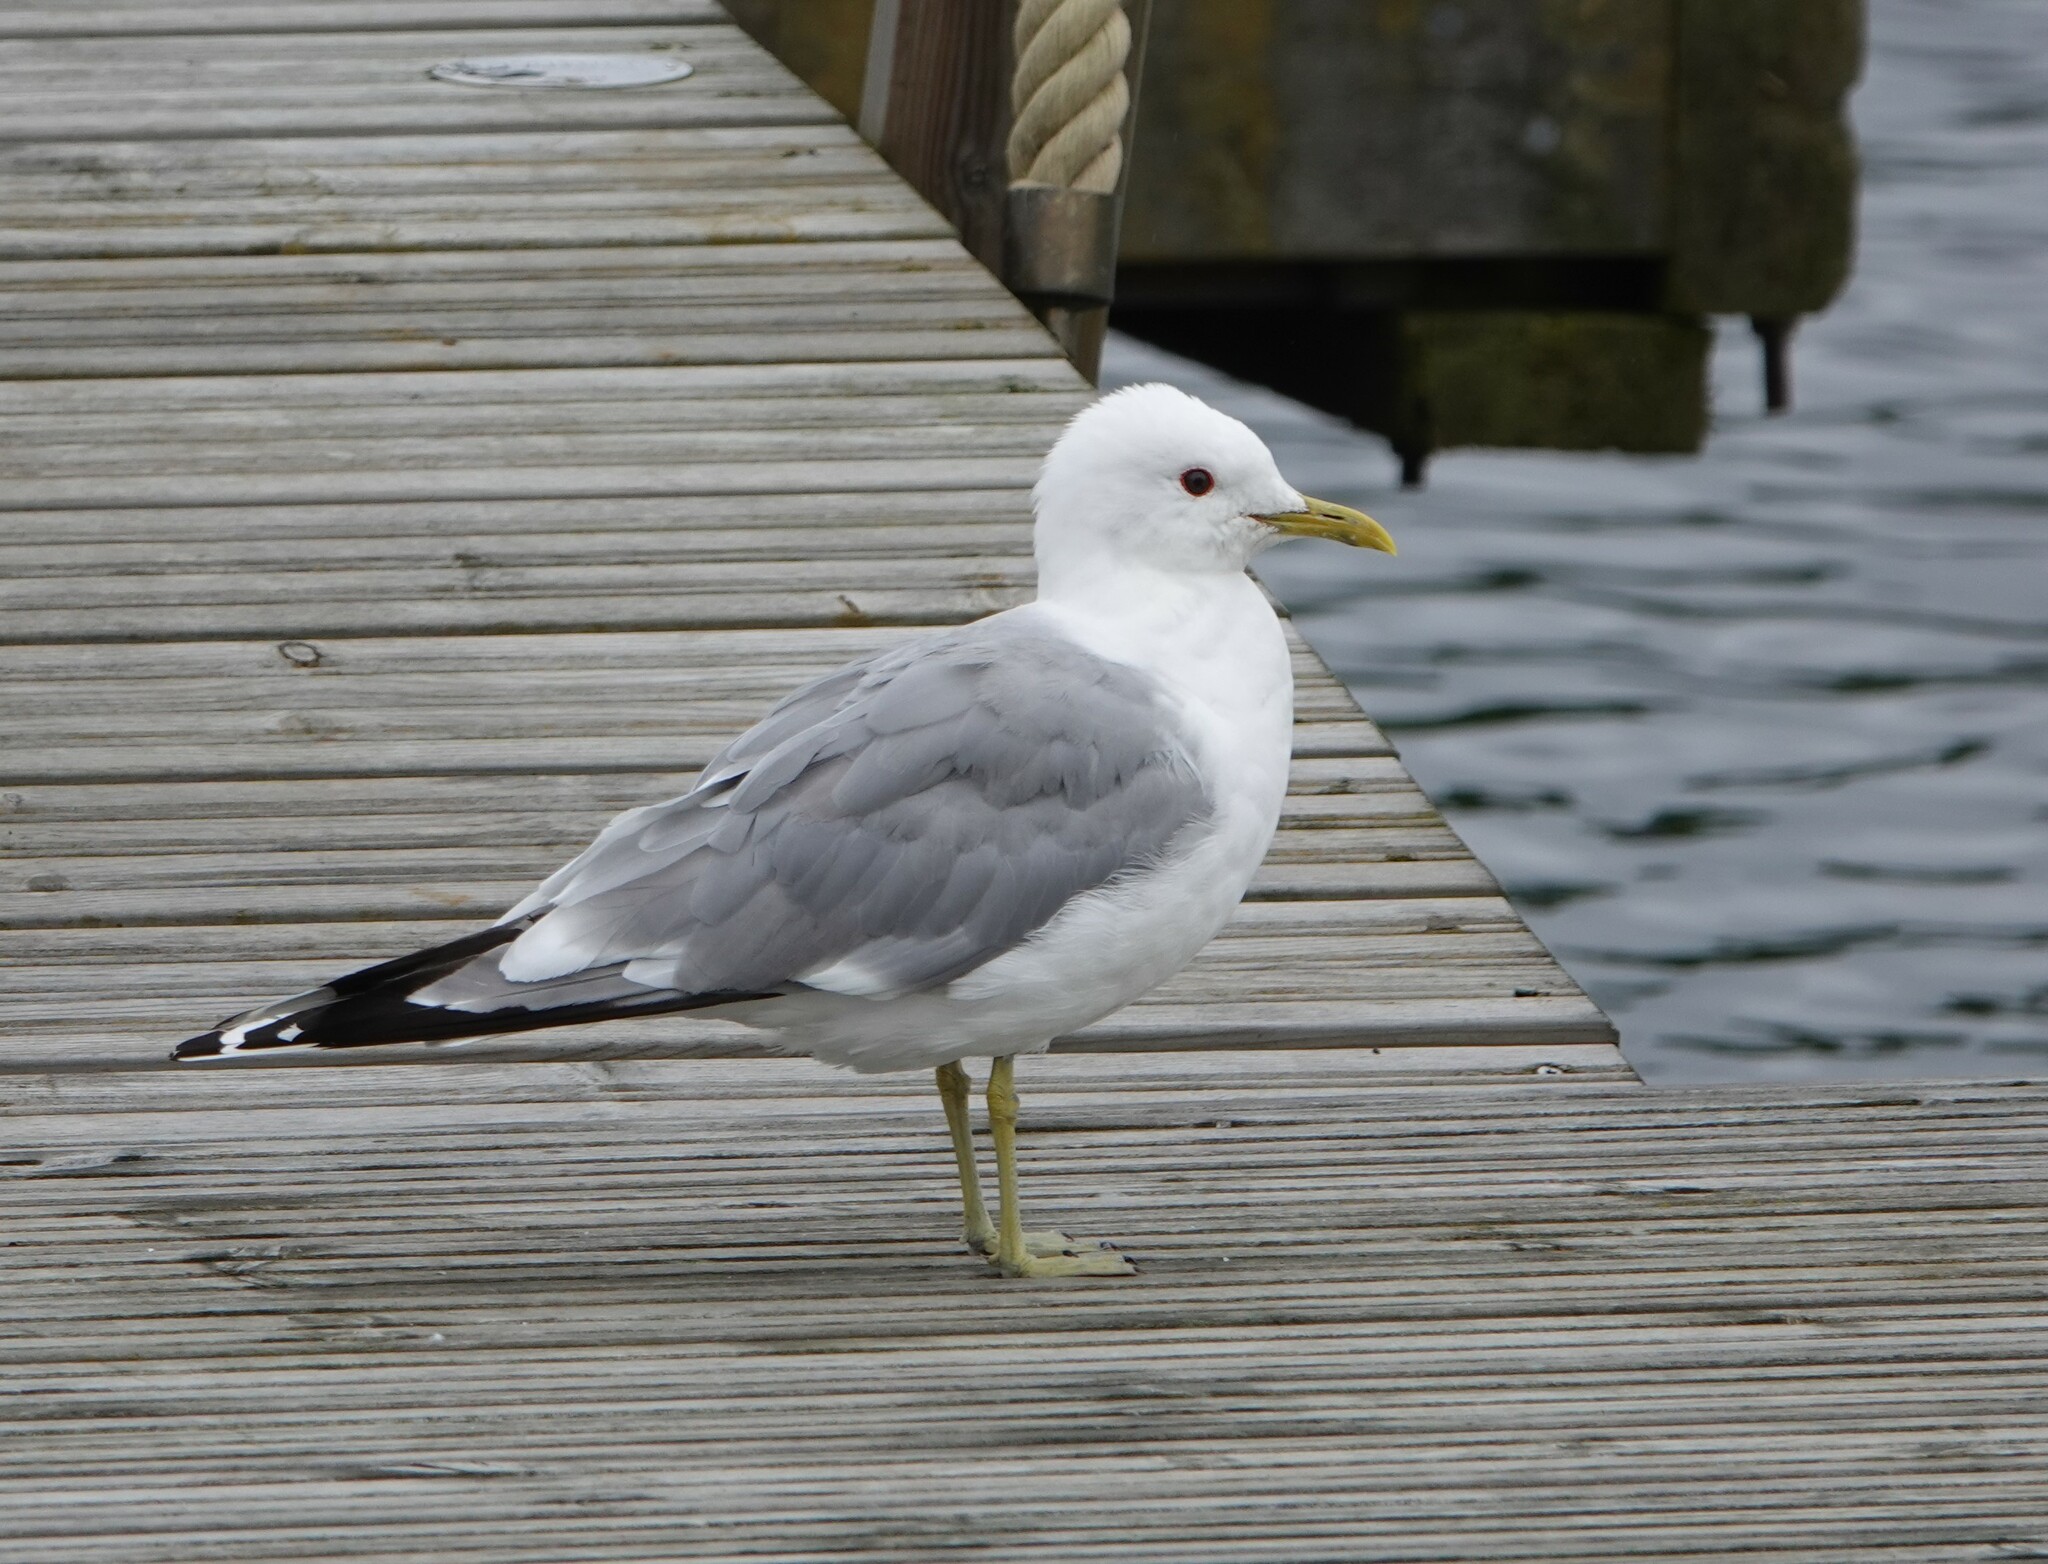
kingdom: Animalia
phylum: Chordata
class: Aves
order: Charadriiformes
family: Laridae
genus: Larus
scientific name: Larus canus
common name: Mew gull
